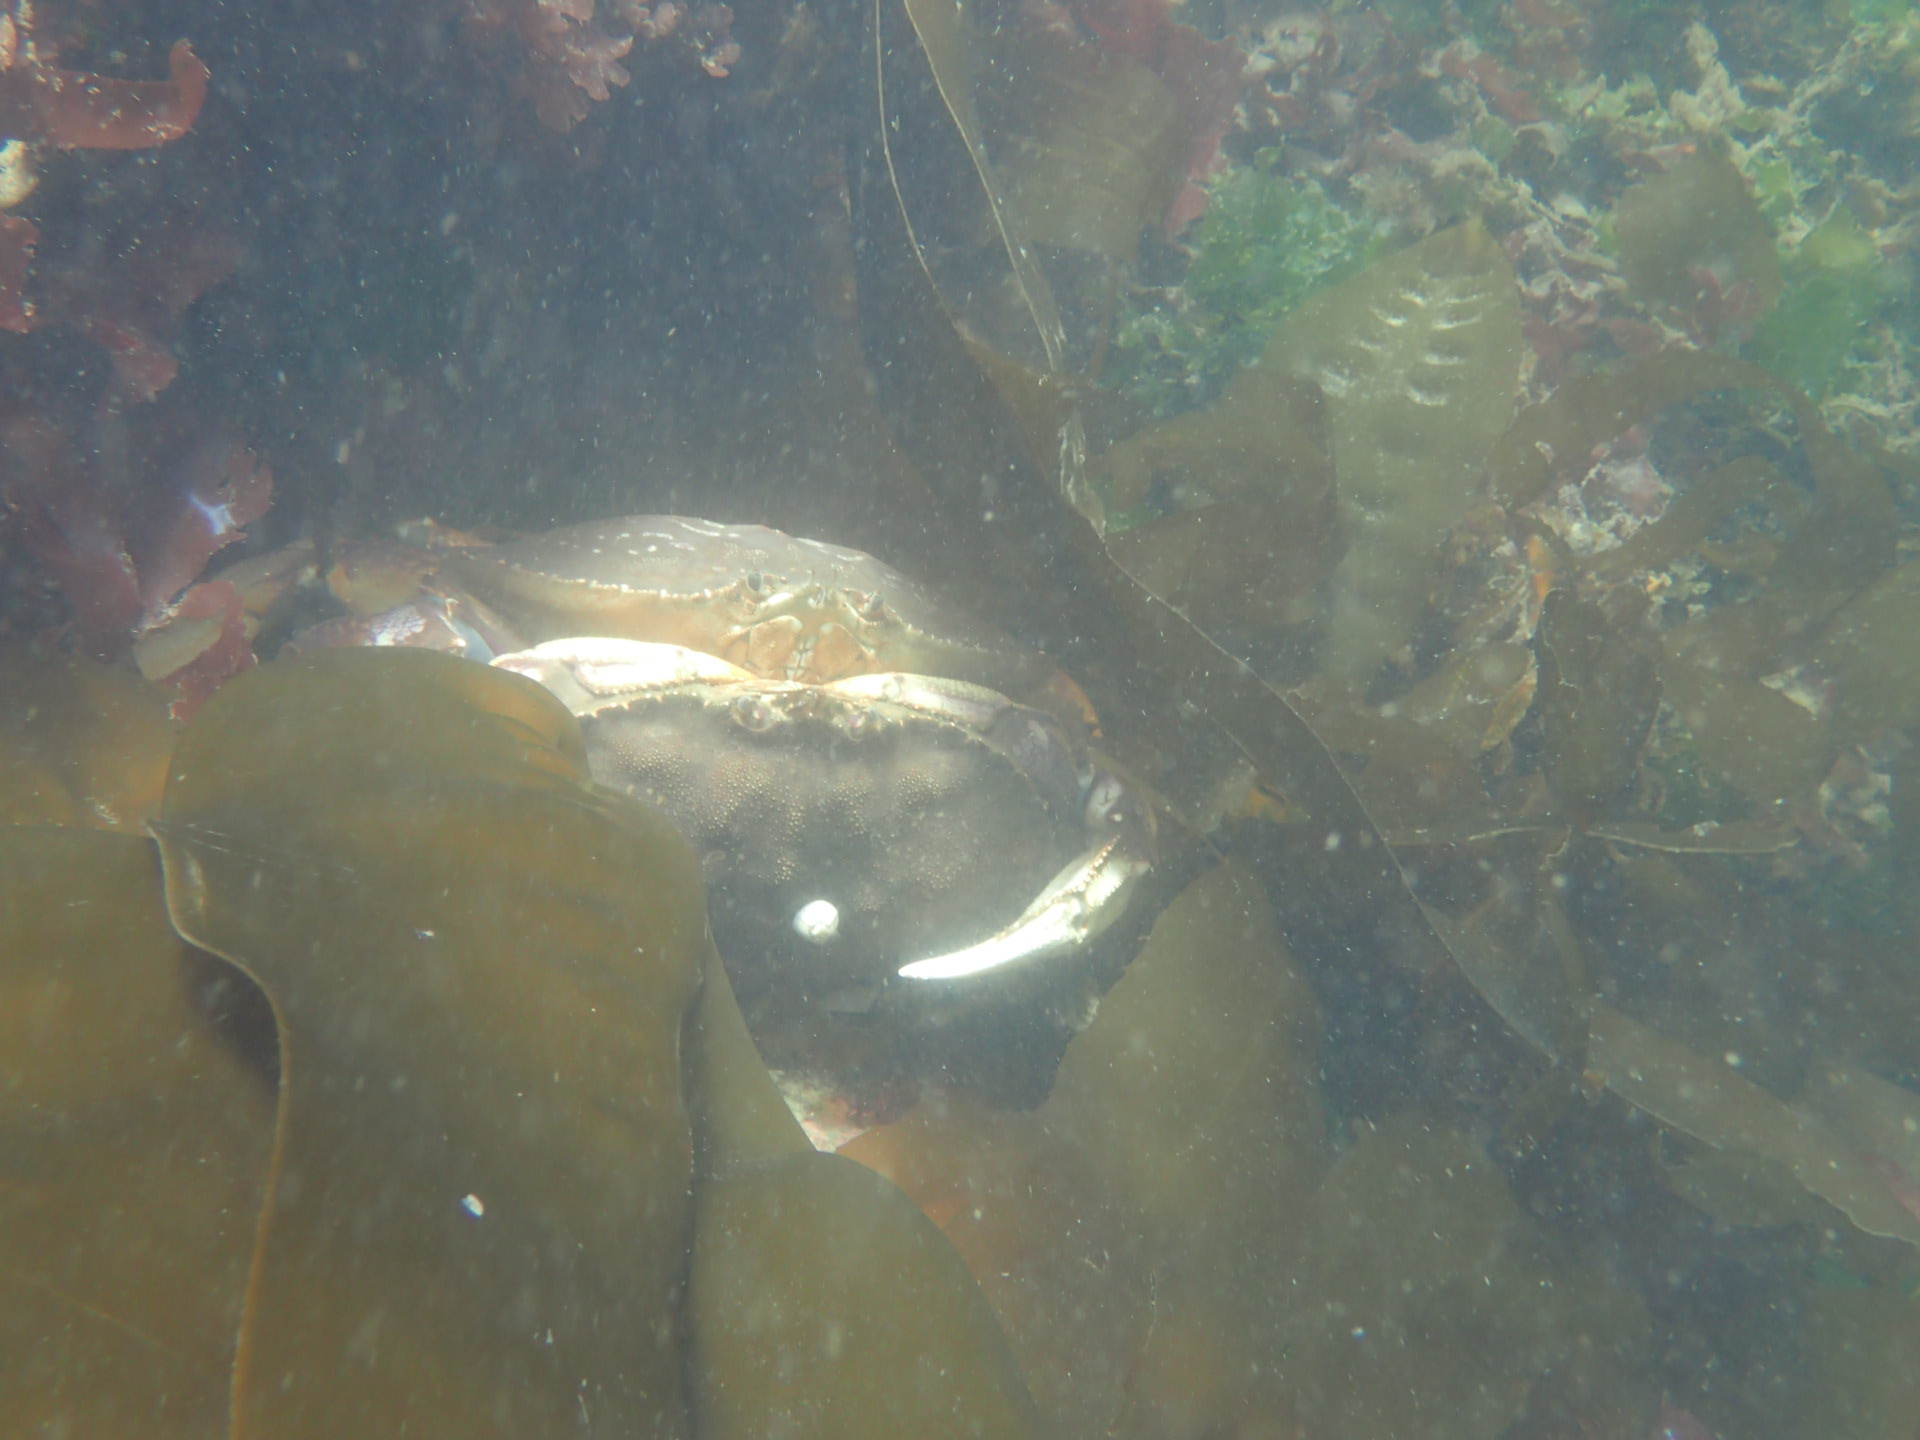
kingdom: Animalia
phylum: Arthropoda
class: Malacostraca
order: Decapoda
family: Cancridae
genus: Metacarcinus
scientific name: Metacarcinus magister
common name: Californian crab
